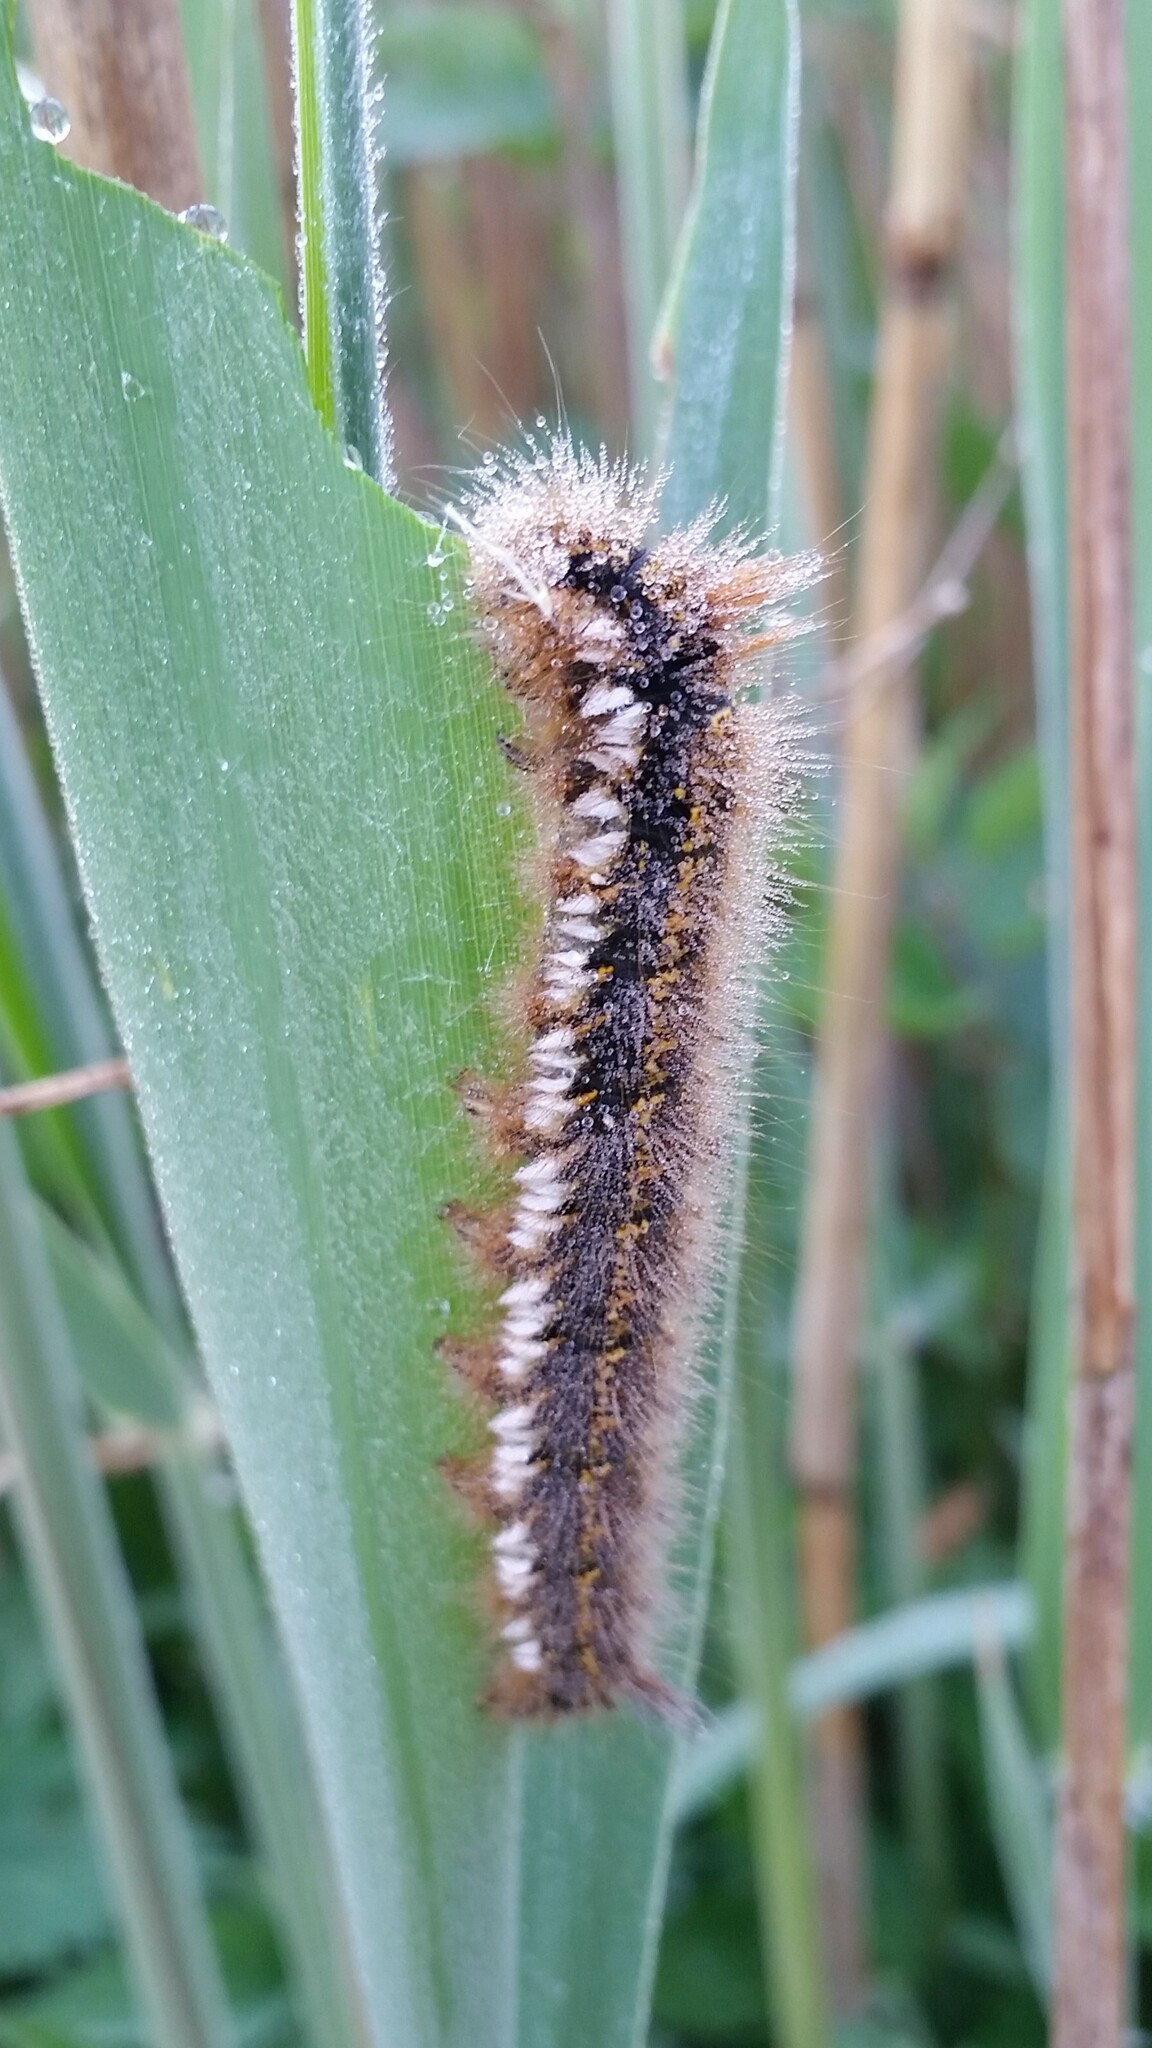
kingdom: Animalia
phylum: Arthropoda
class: Insecta
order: Lepidoptera
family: Lasiocampidae
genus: Euthrix
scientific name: Euthrix potatoria
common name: Drinker
